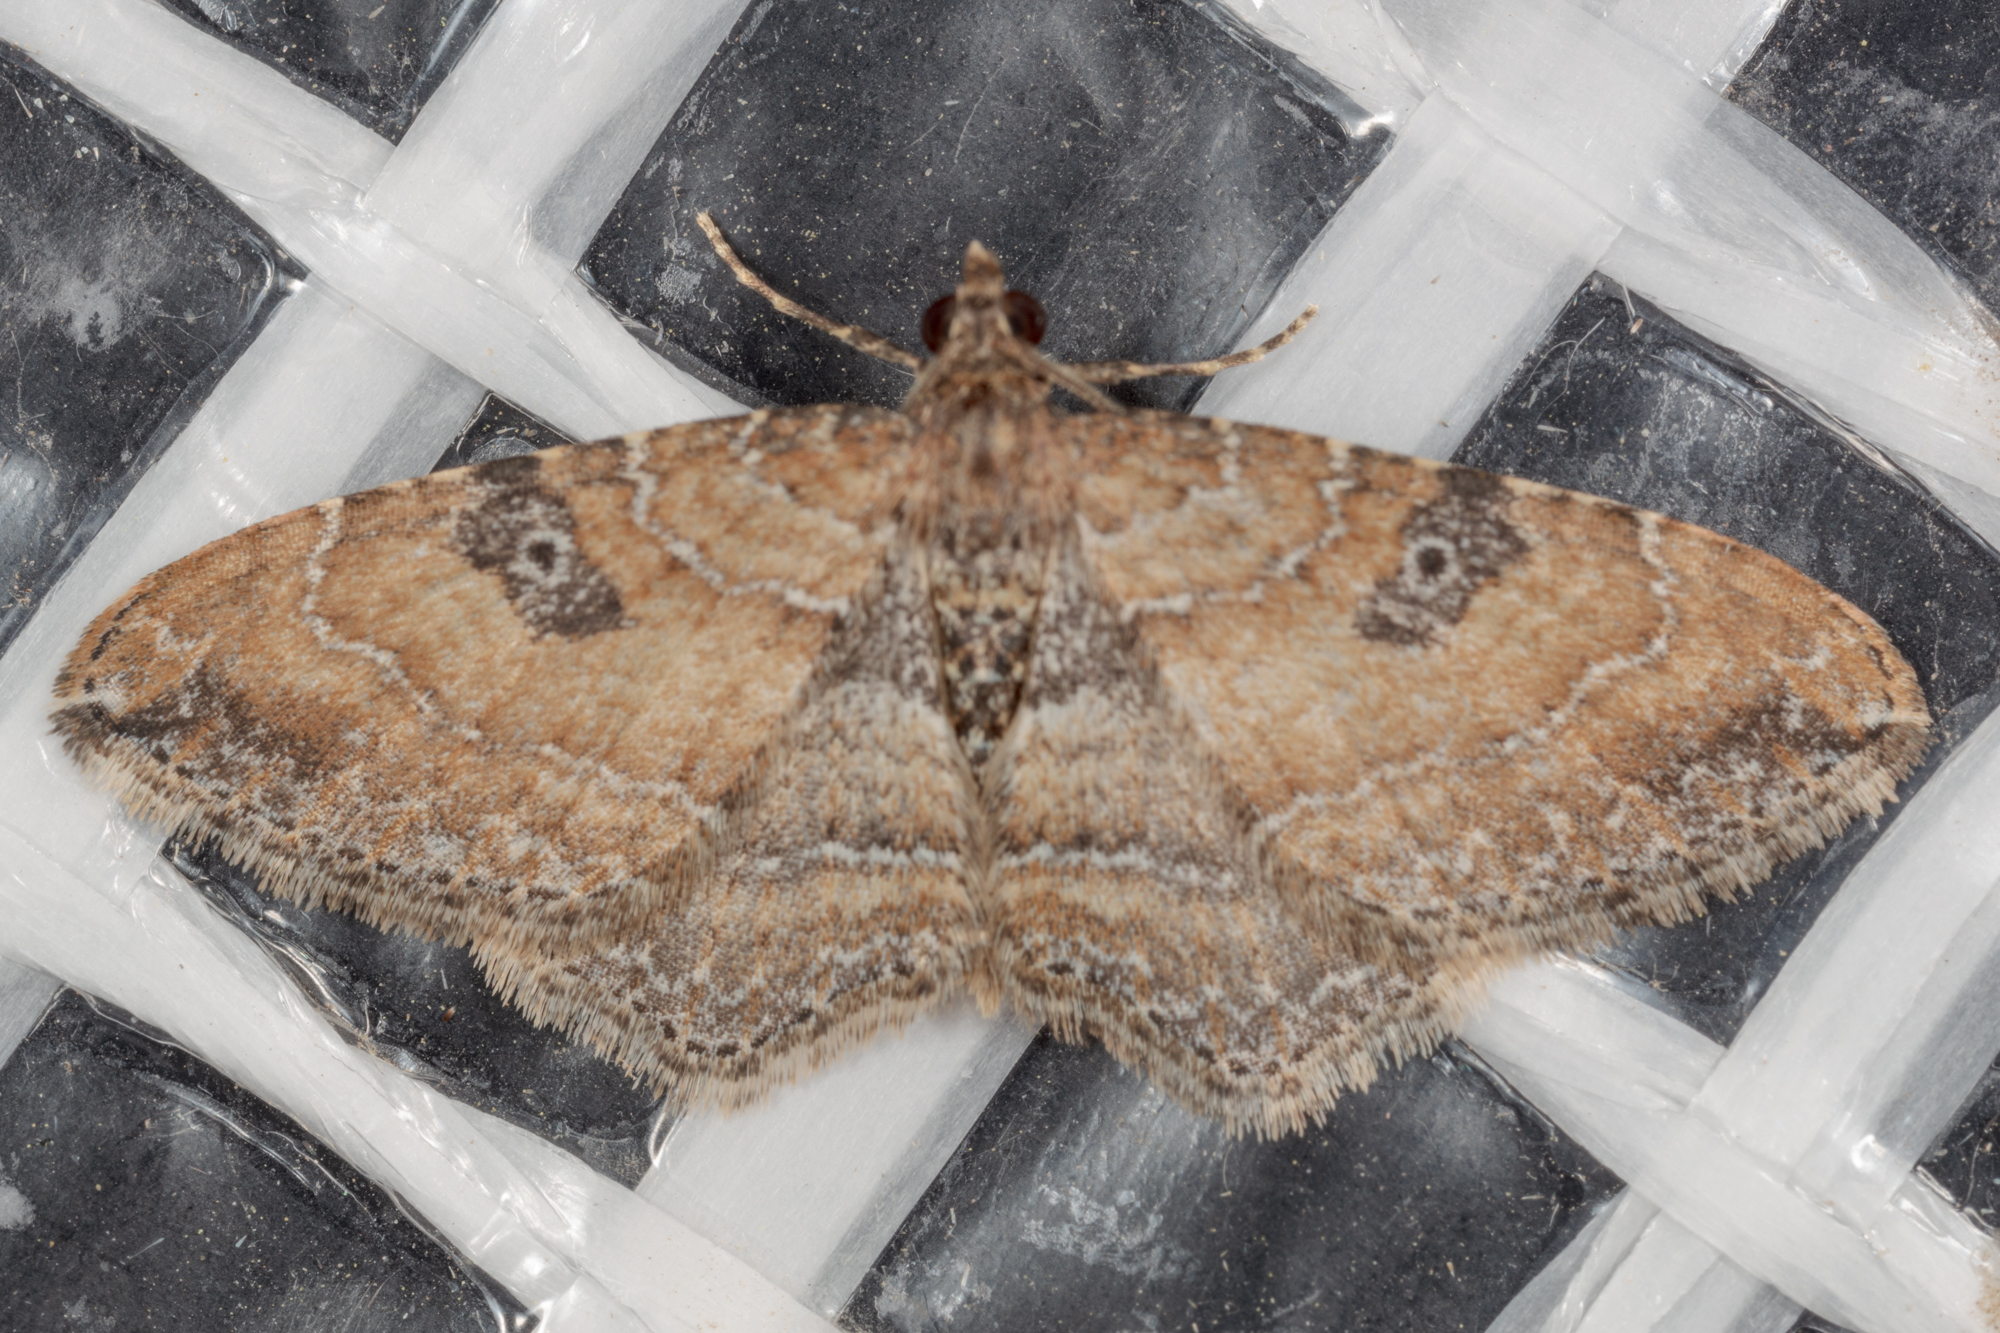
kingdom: Animalia
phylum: Arthropoda
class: Insecta
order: Lepidoptera
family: Geometridae
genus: Orthonama
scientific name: Orthonama obstipata
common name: The gem
